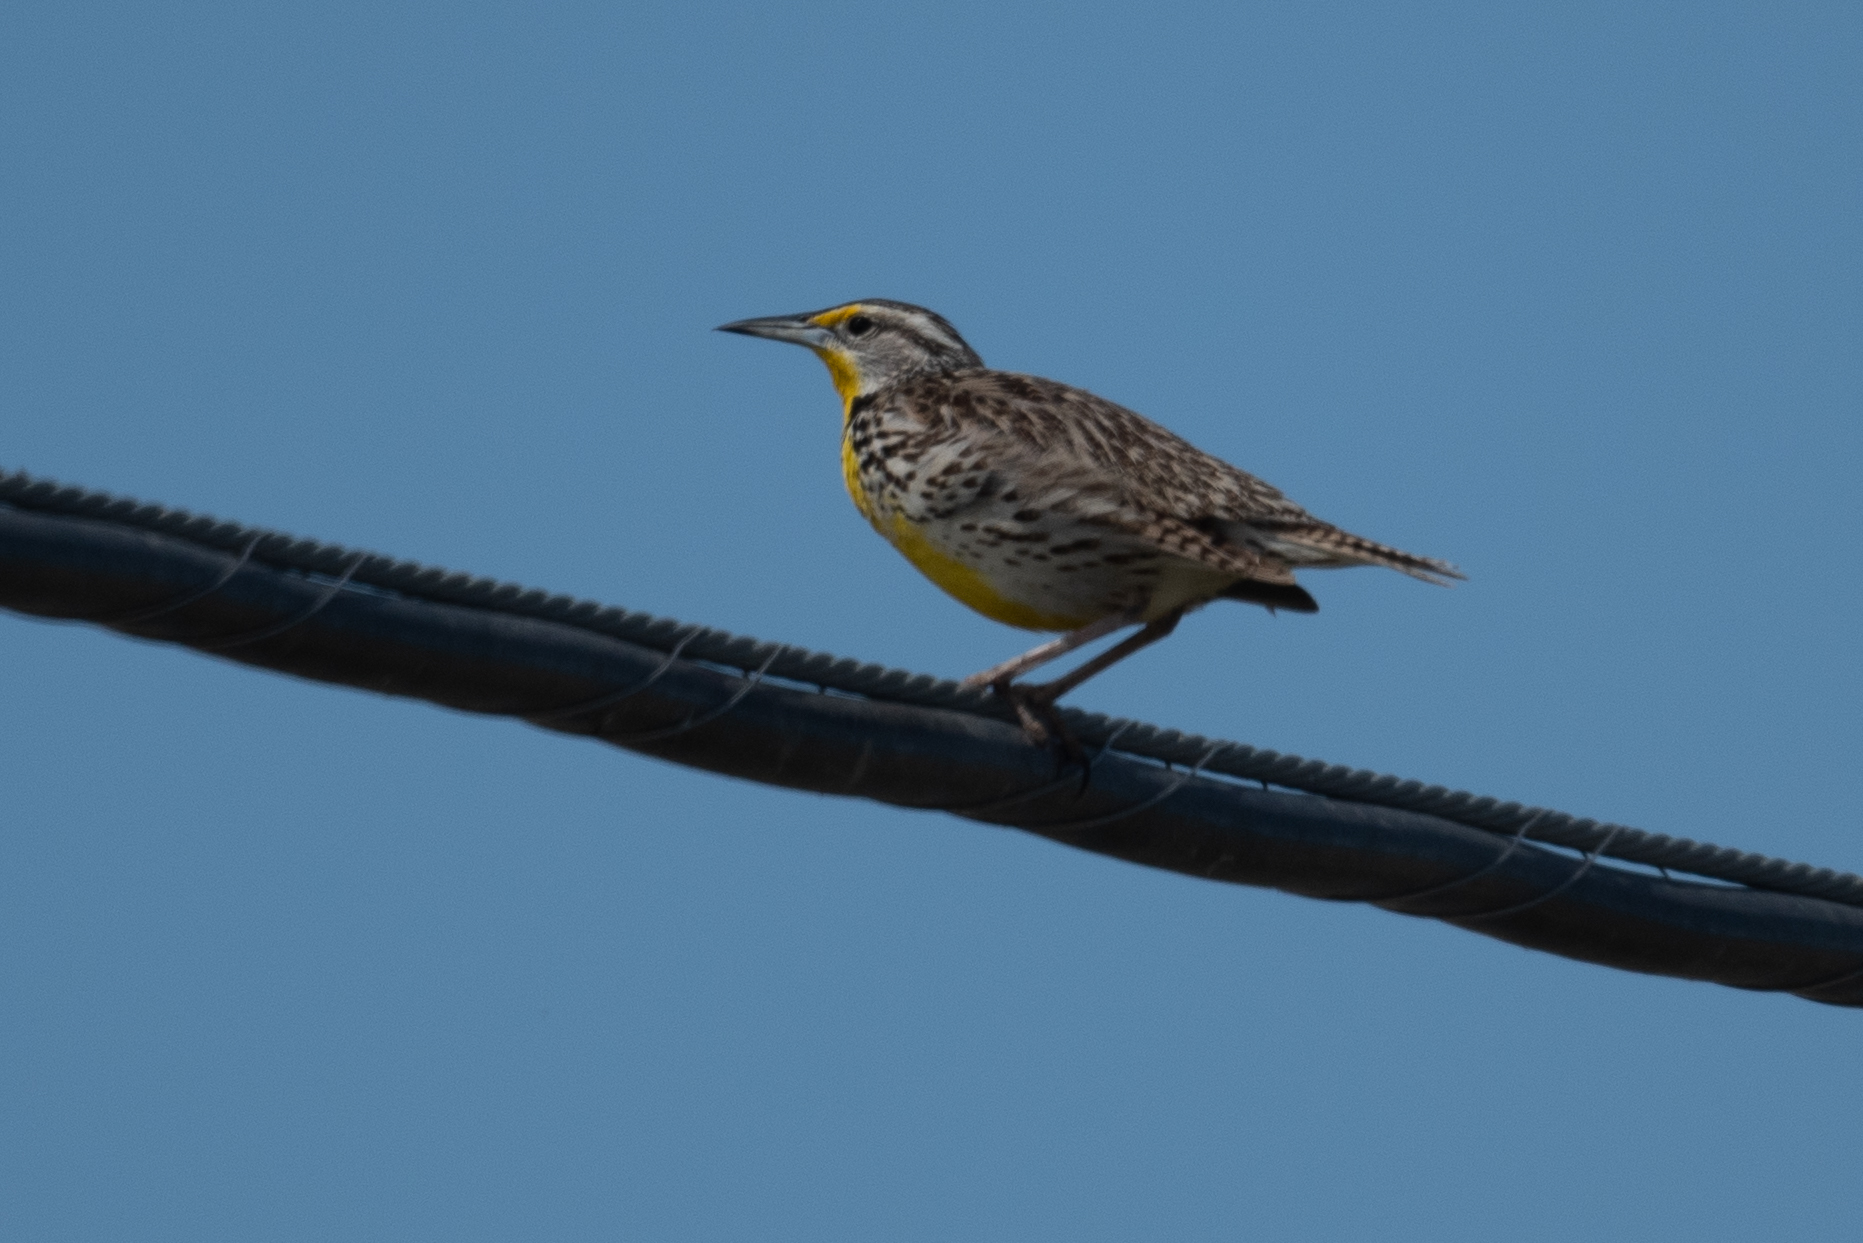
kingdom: Animalia
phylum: Chordata
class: Aves
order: Passeriformes
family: Icteridae
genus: Sturnella
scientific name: Sturnella neglecta
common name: Western meadowlark
